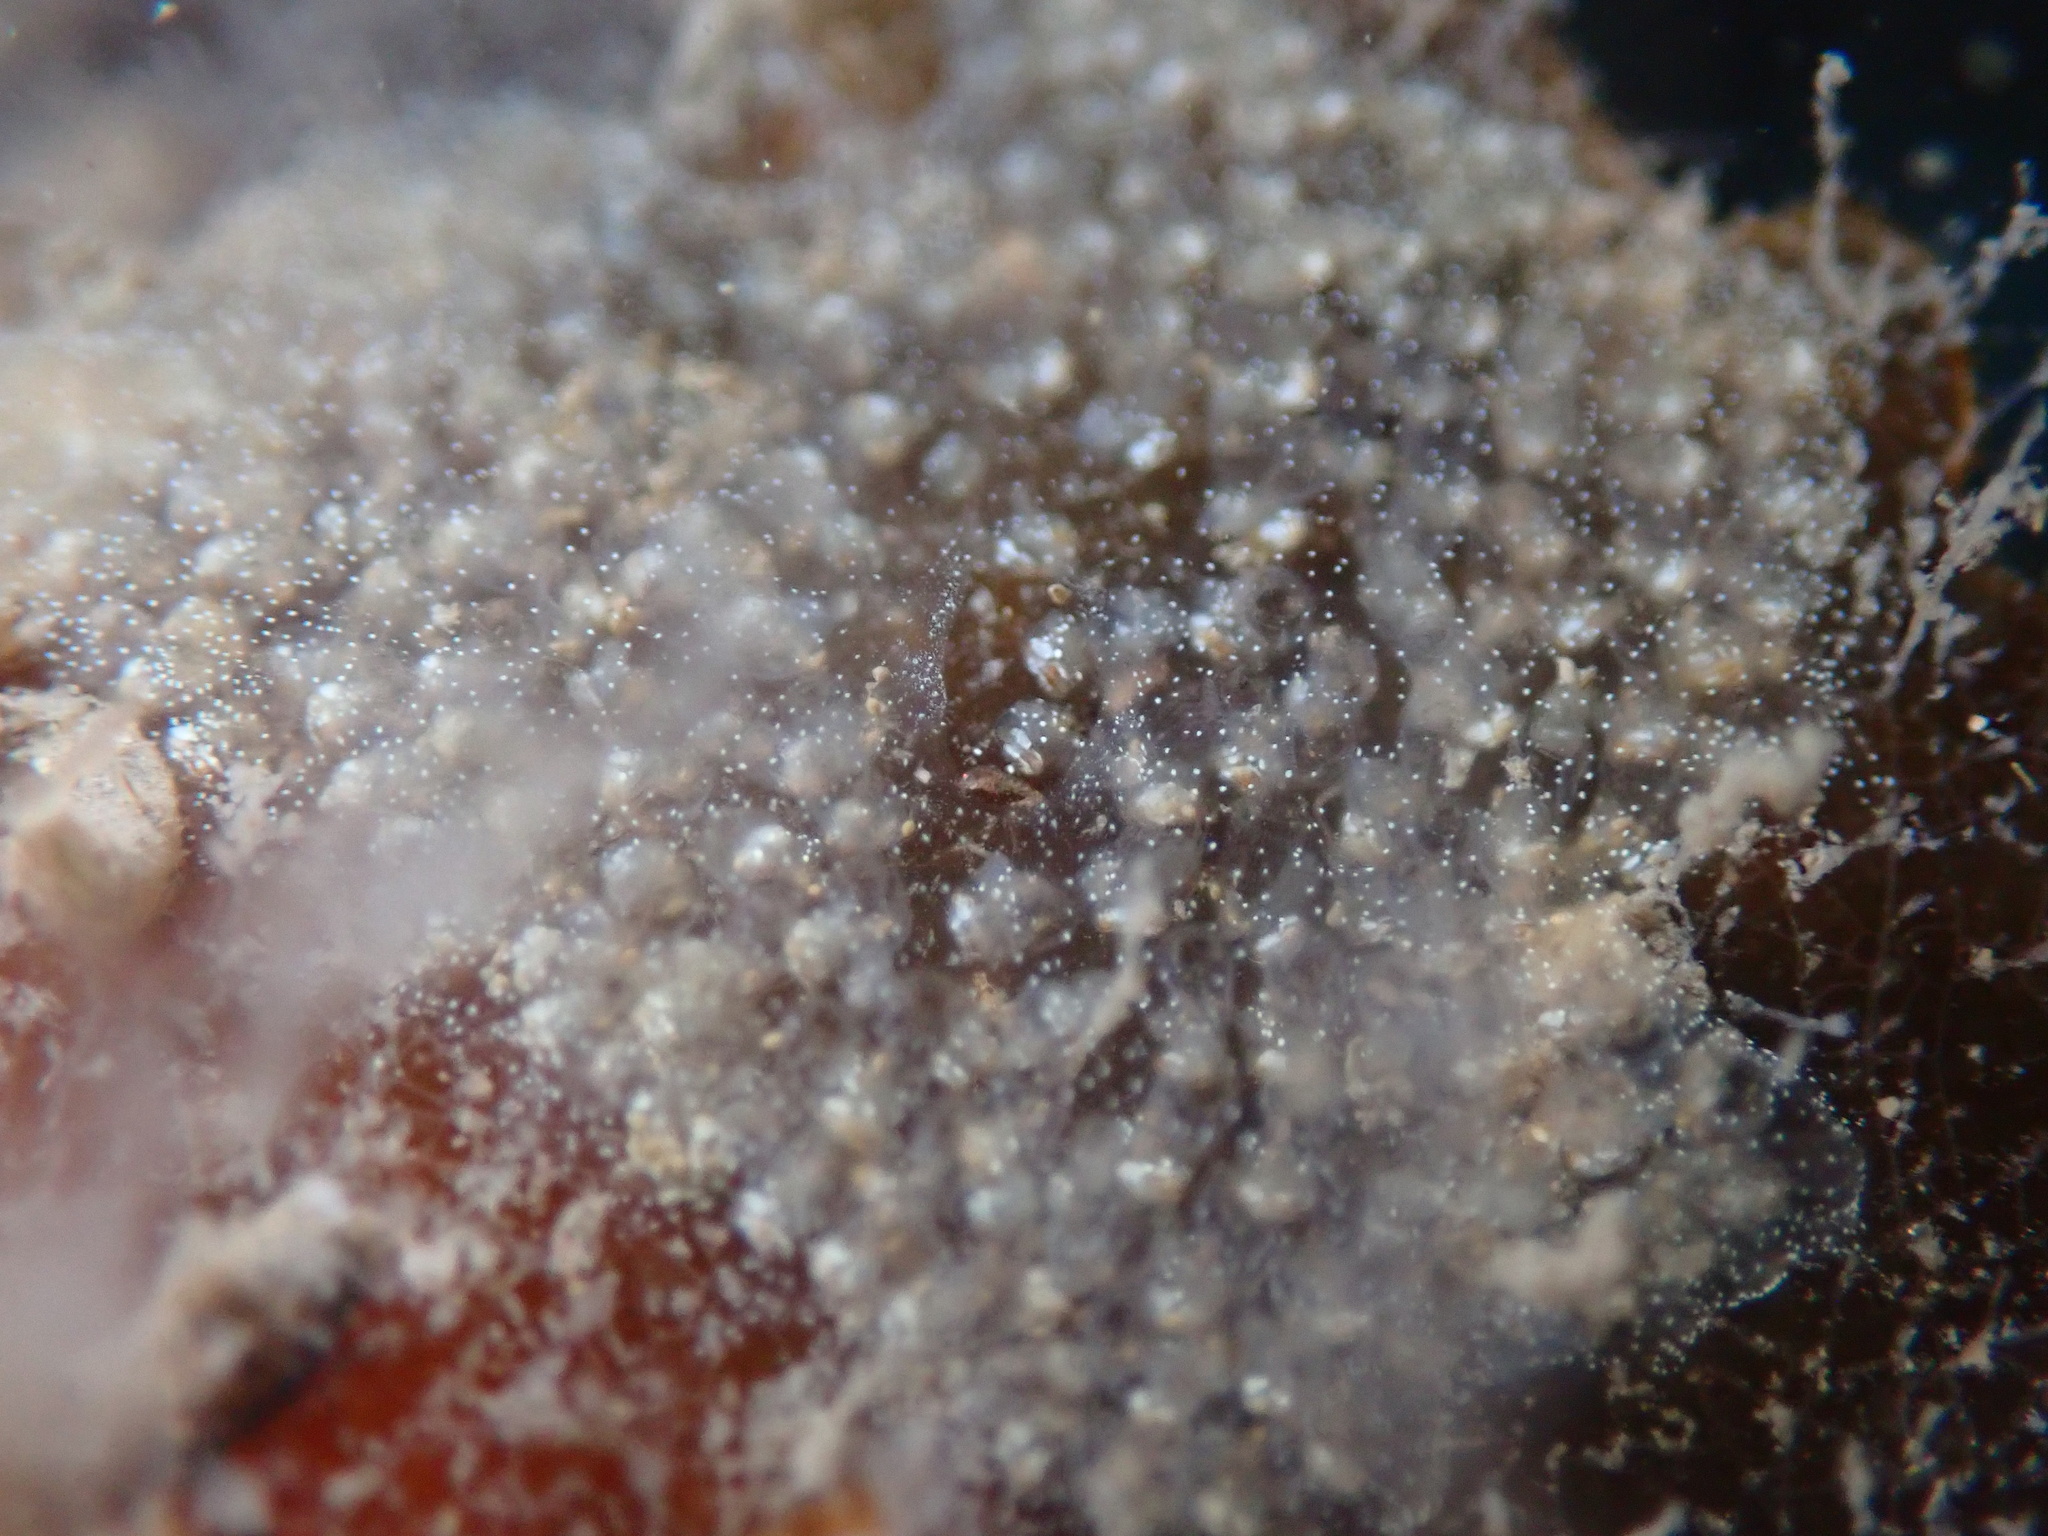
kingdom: Animalia
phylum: Chordata
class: Ascidiacea
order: Aplousobranchia
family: Didemnidae
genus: Diplosoma
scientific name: Diplosoma listerianum
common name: Compound sea squirt
